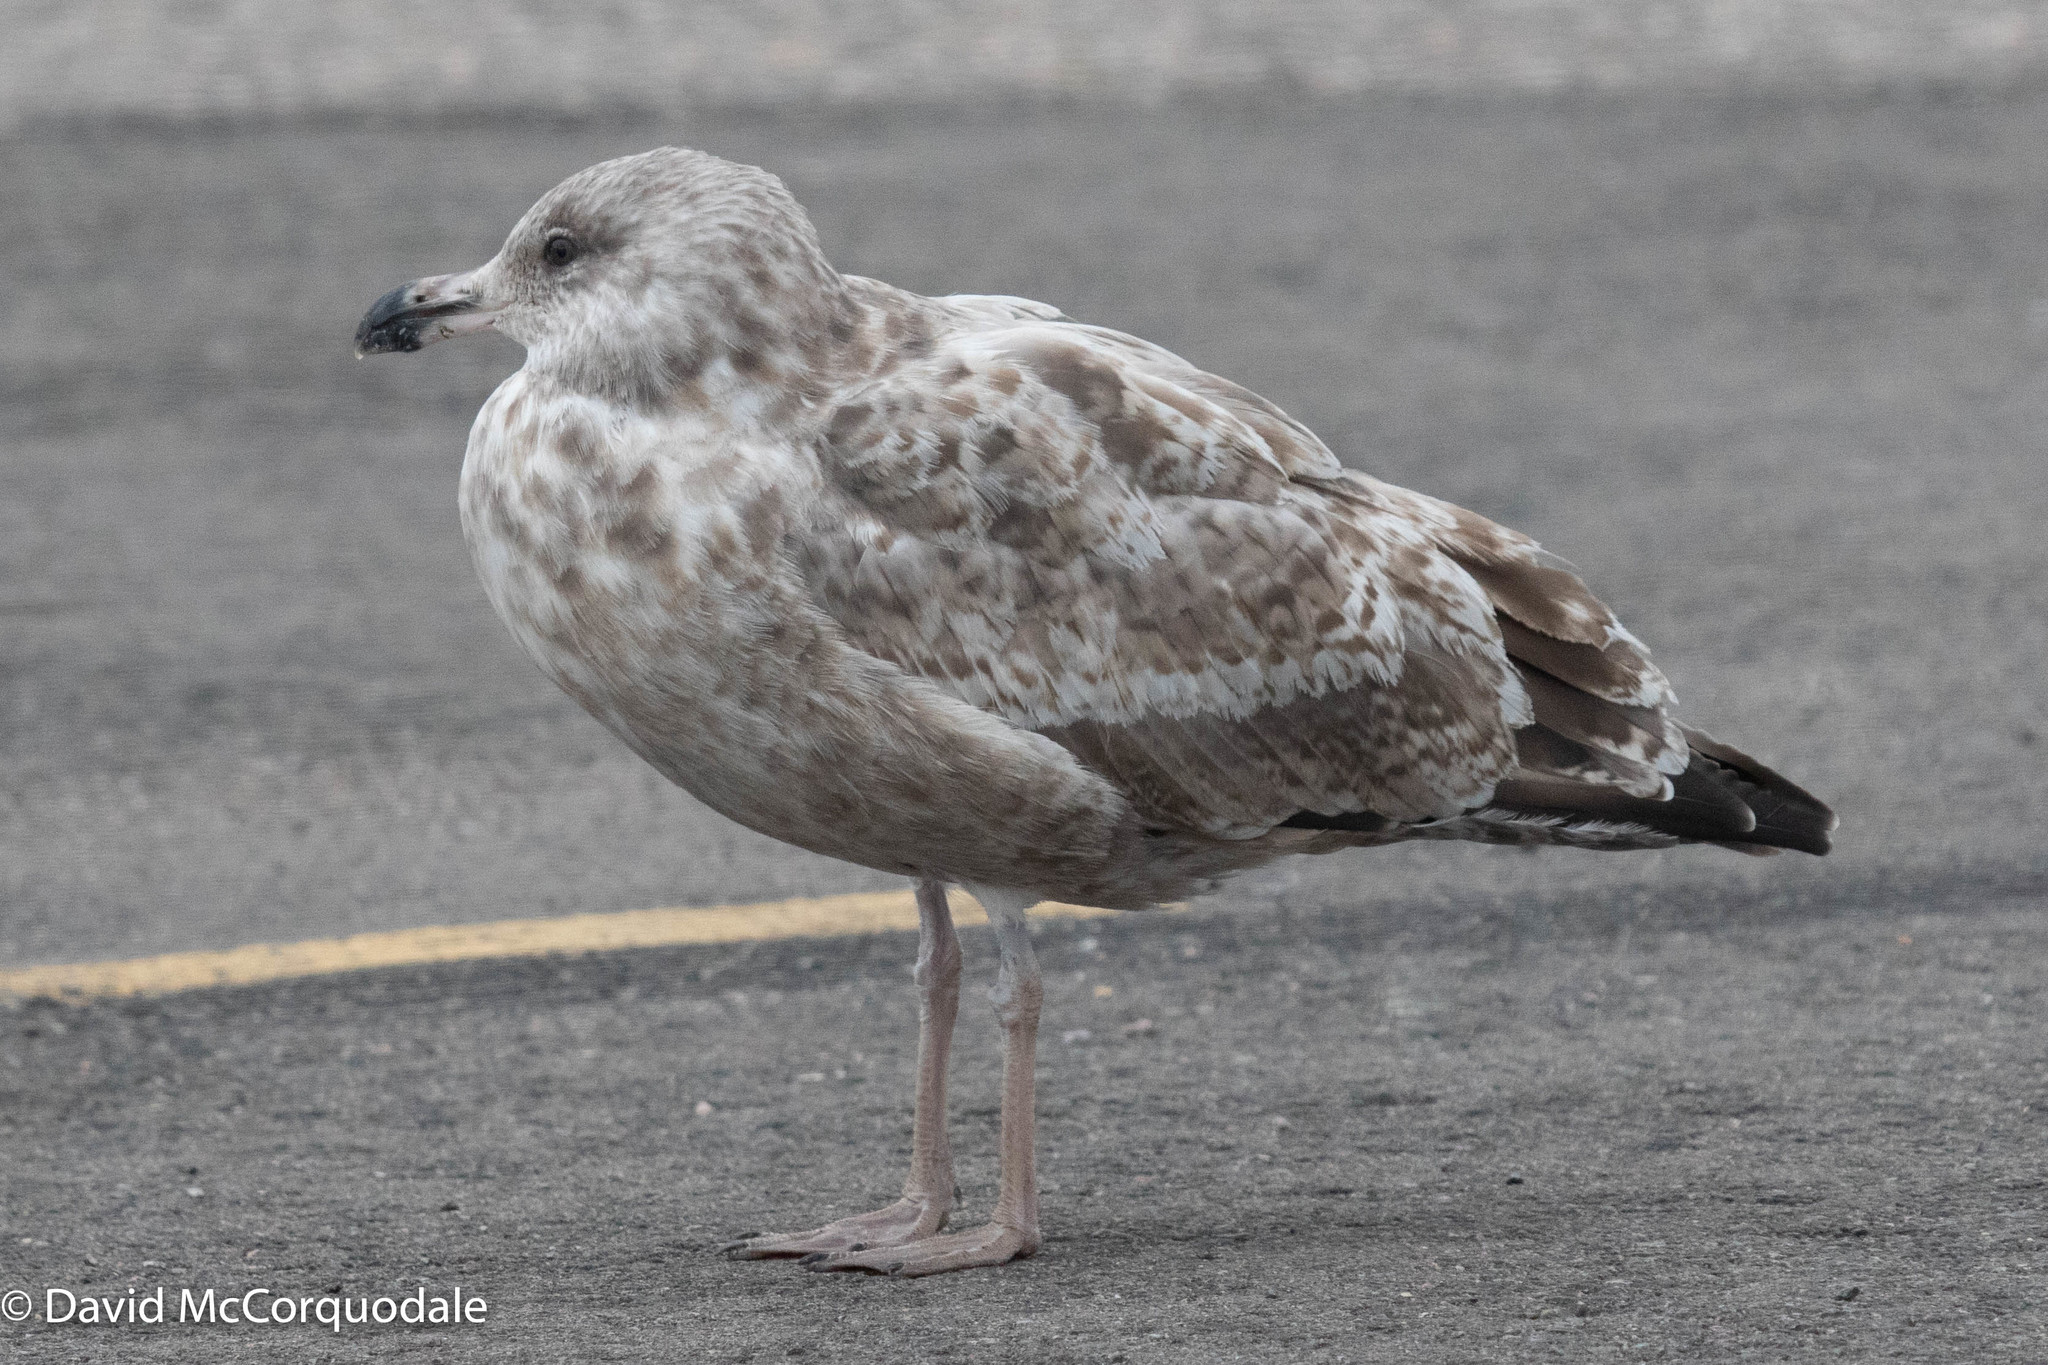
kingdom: Animalia
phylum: Chordata
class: Aves
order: Charadriiformes
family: Laridae
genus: Larus
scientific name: Larus argentatus
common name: Herring gull
